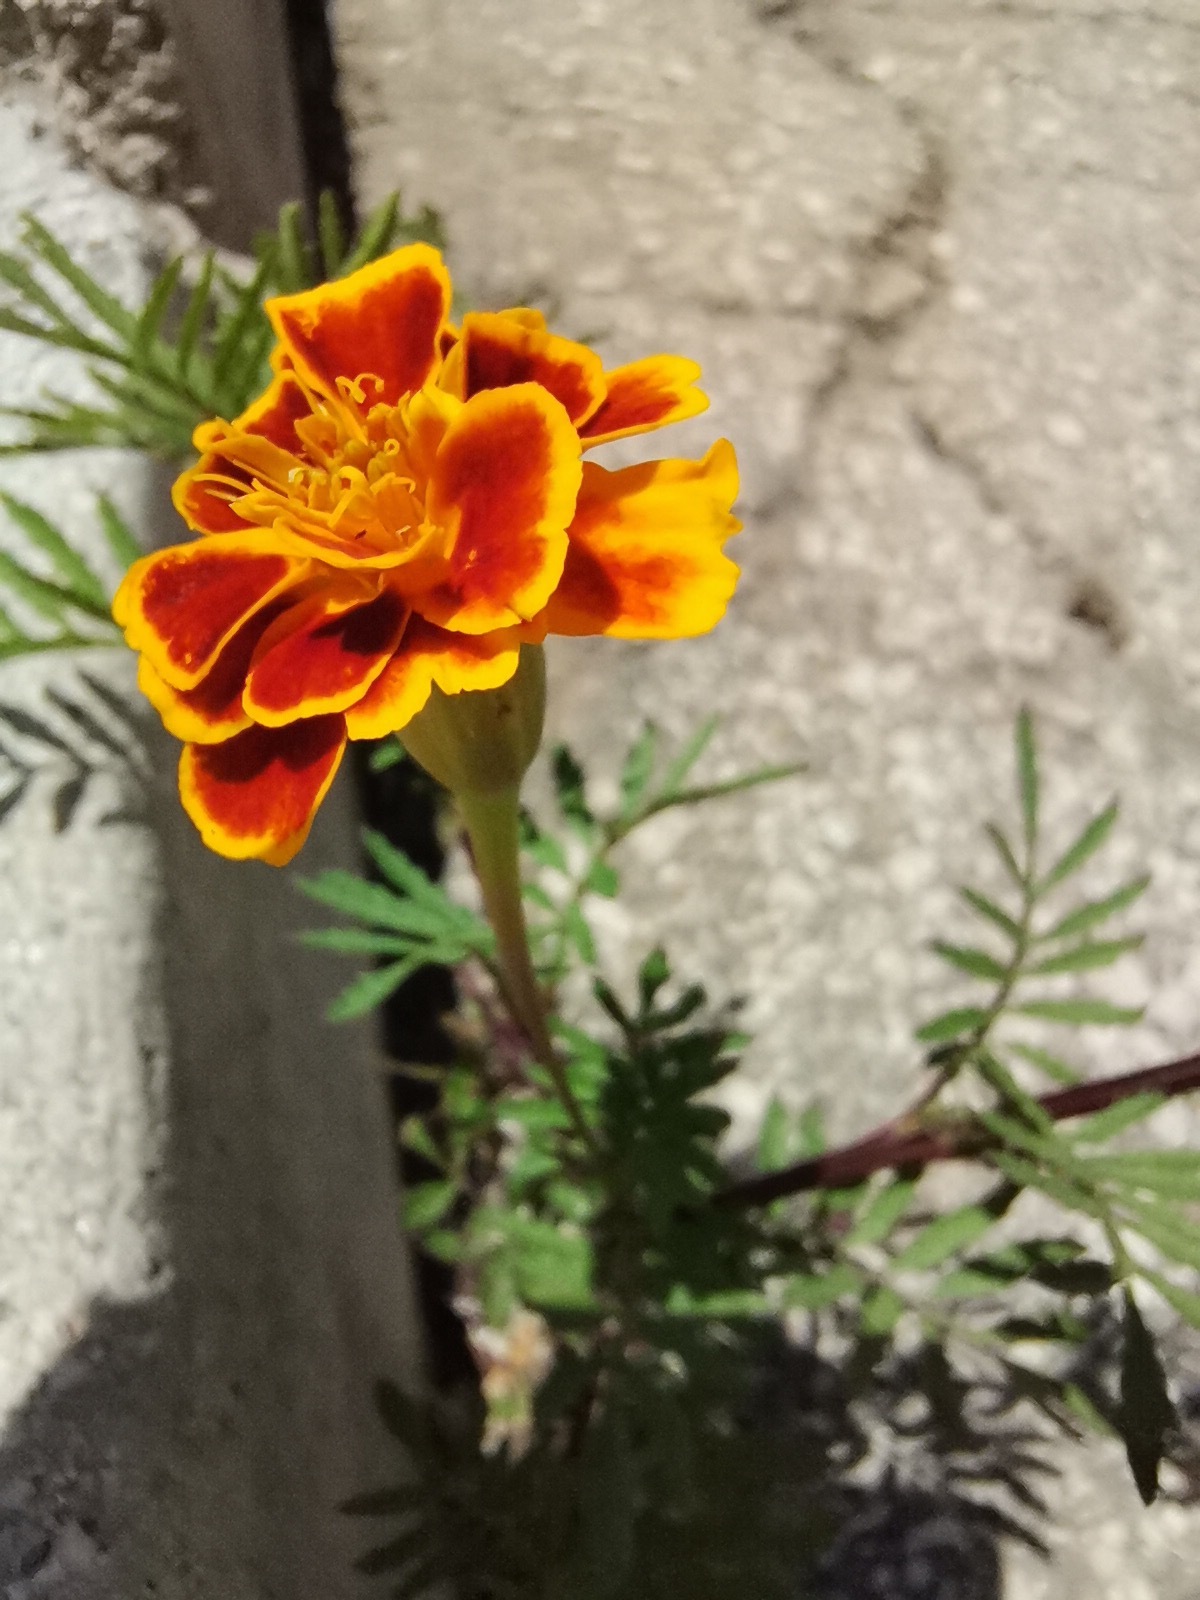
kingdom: Plantae
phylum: Tracheophyta
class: Magnoliopsida
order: Asterales
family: Asteraceae
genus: Tagetes
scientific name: Tagetes erecta
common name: African marigold
